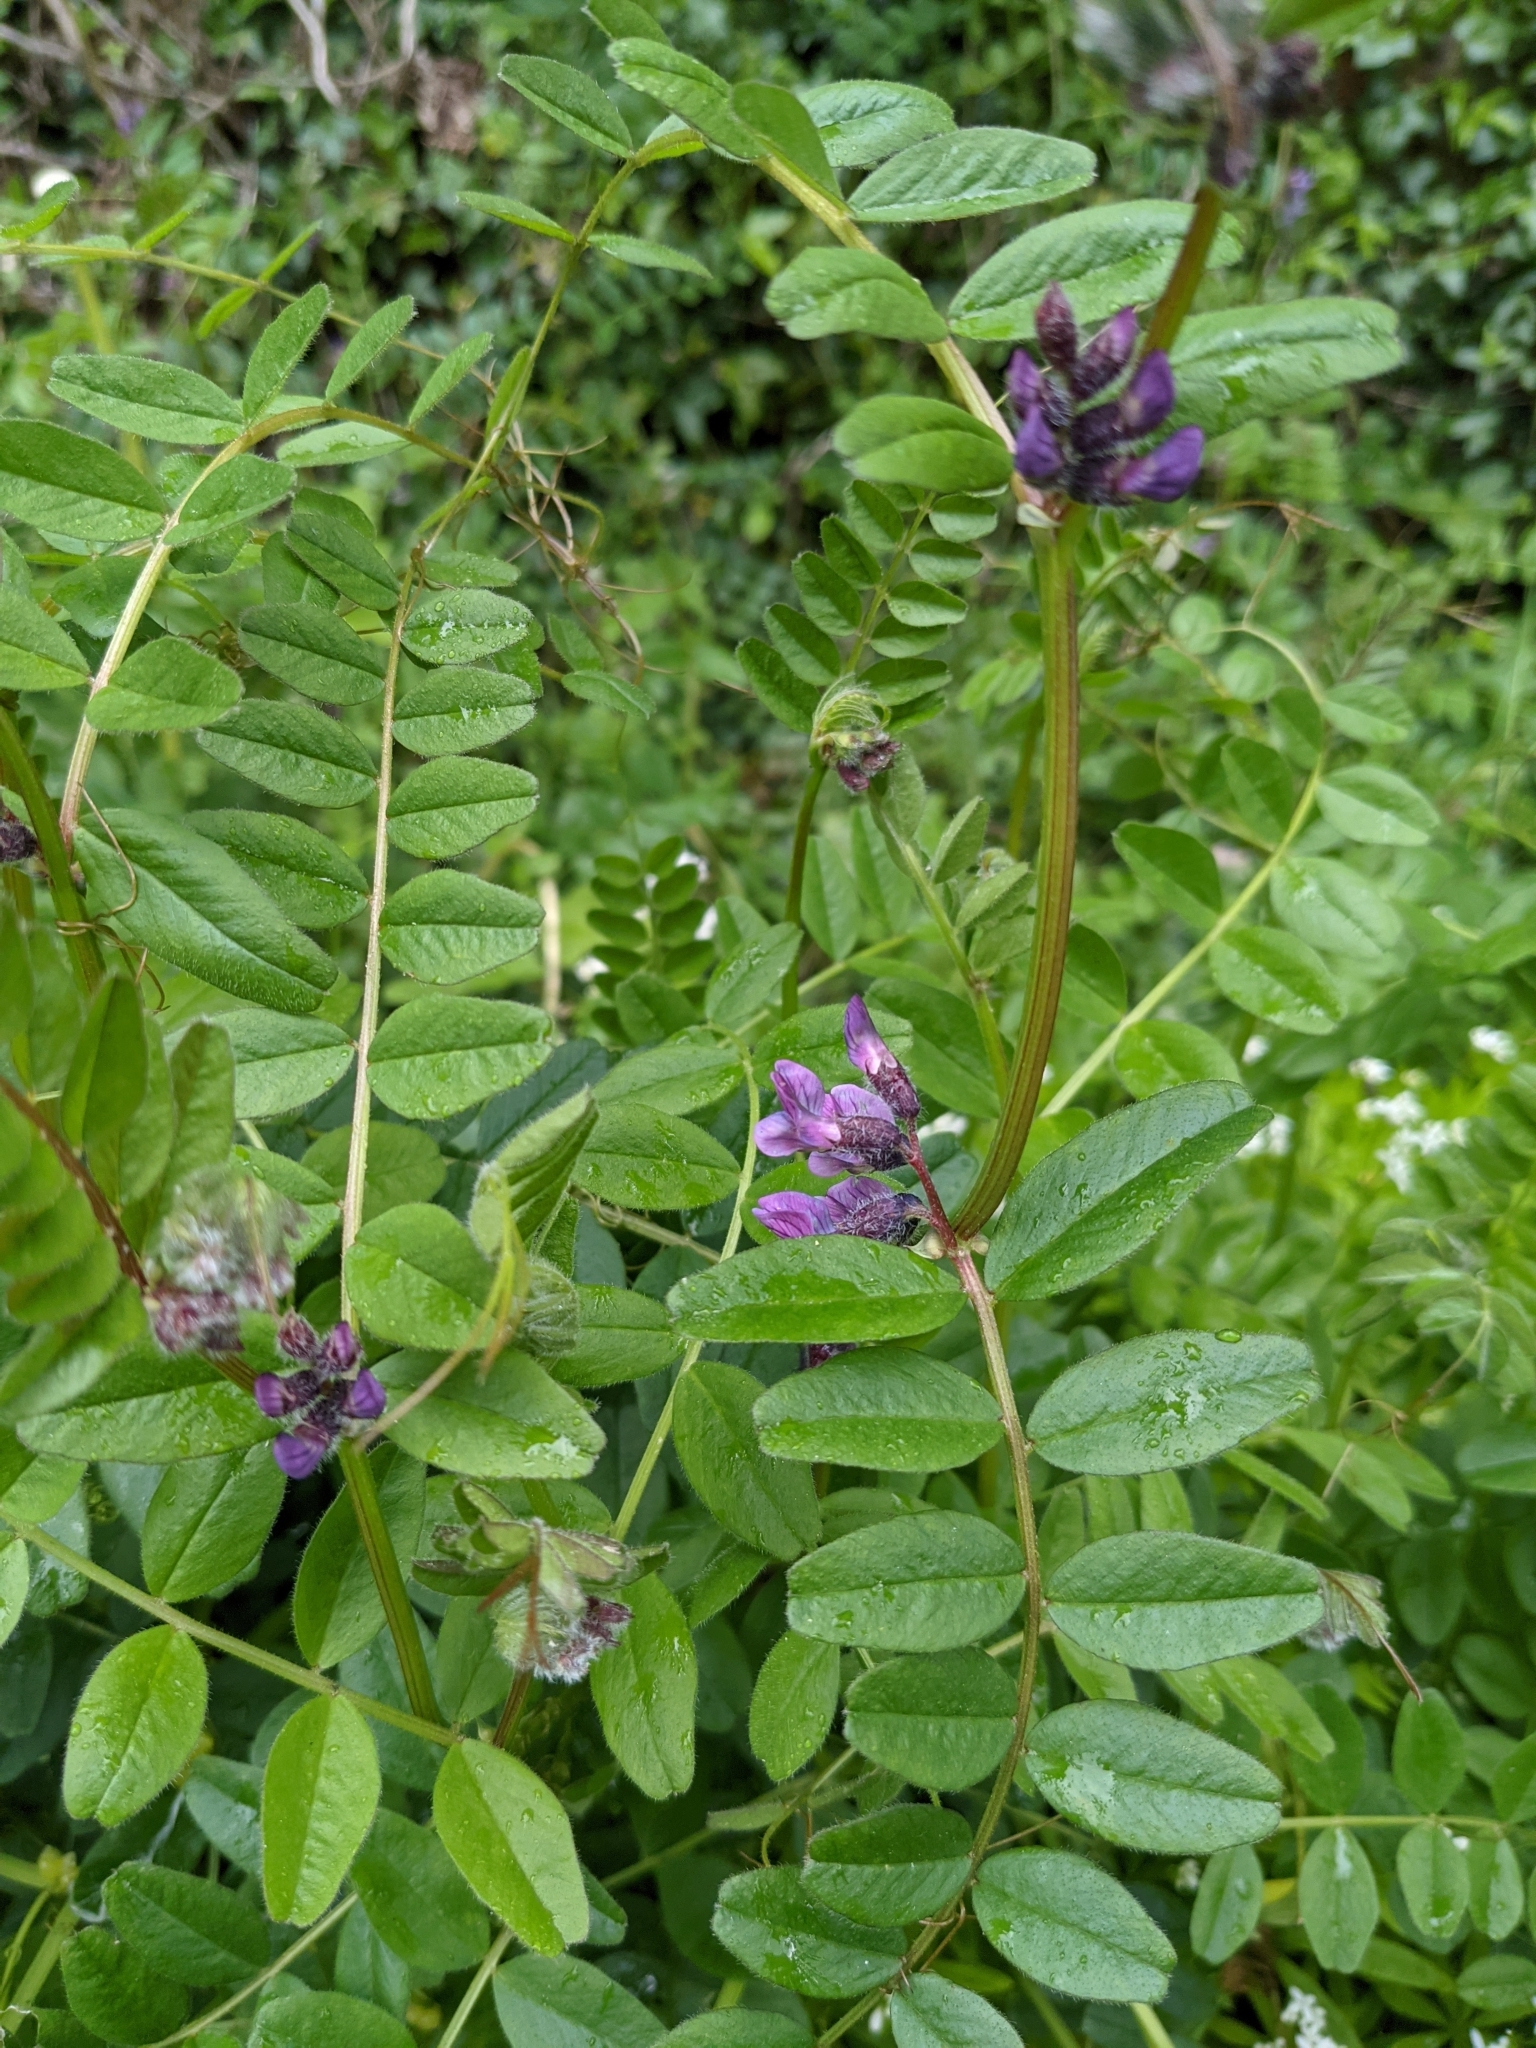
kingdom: Plantae
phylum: Tracheophyta
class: Magnoliopsida
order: Fabales
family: Fabaceae
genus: Vicia
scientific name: Vicia sepium
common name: Bush vetch
